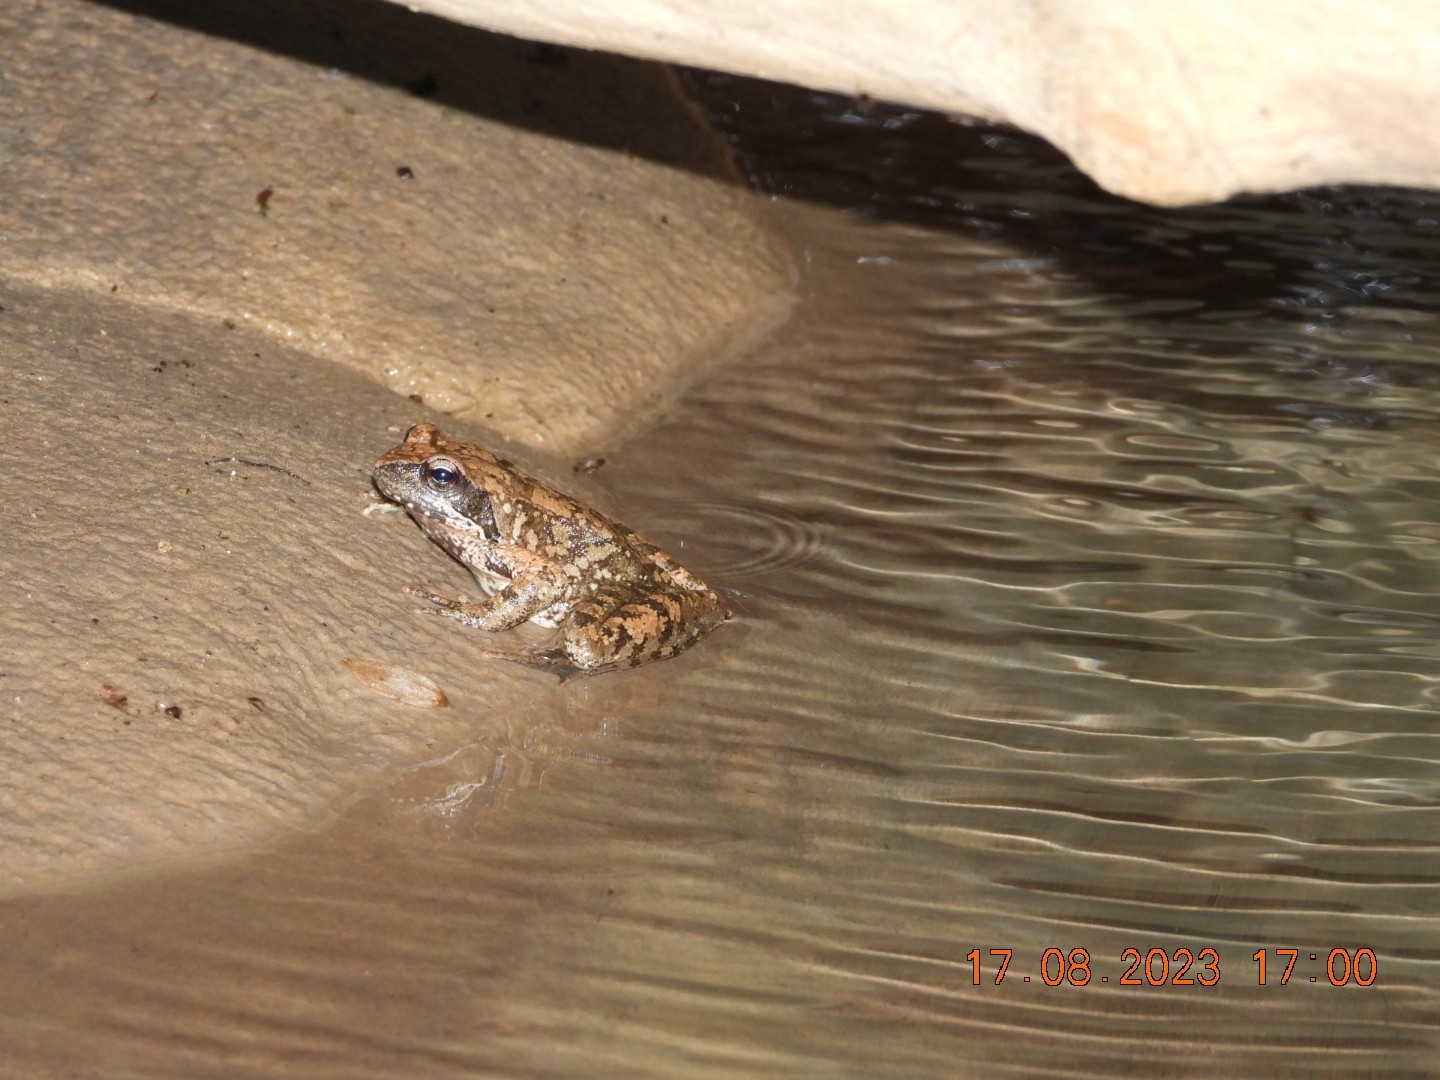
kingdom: Animalia
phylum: Chordata
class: Amphibia
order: Anura
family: Ranidae
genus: Rana
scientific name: Rana italica
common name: Italian stream frog
